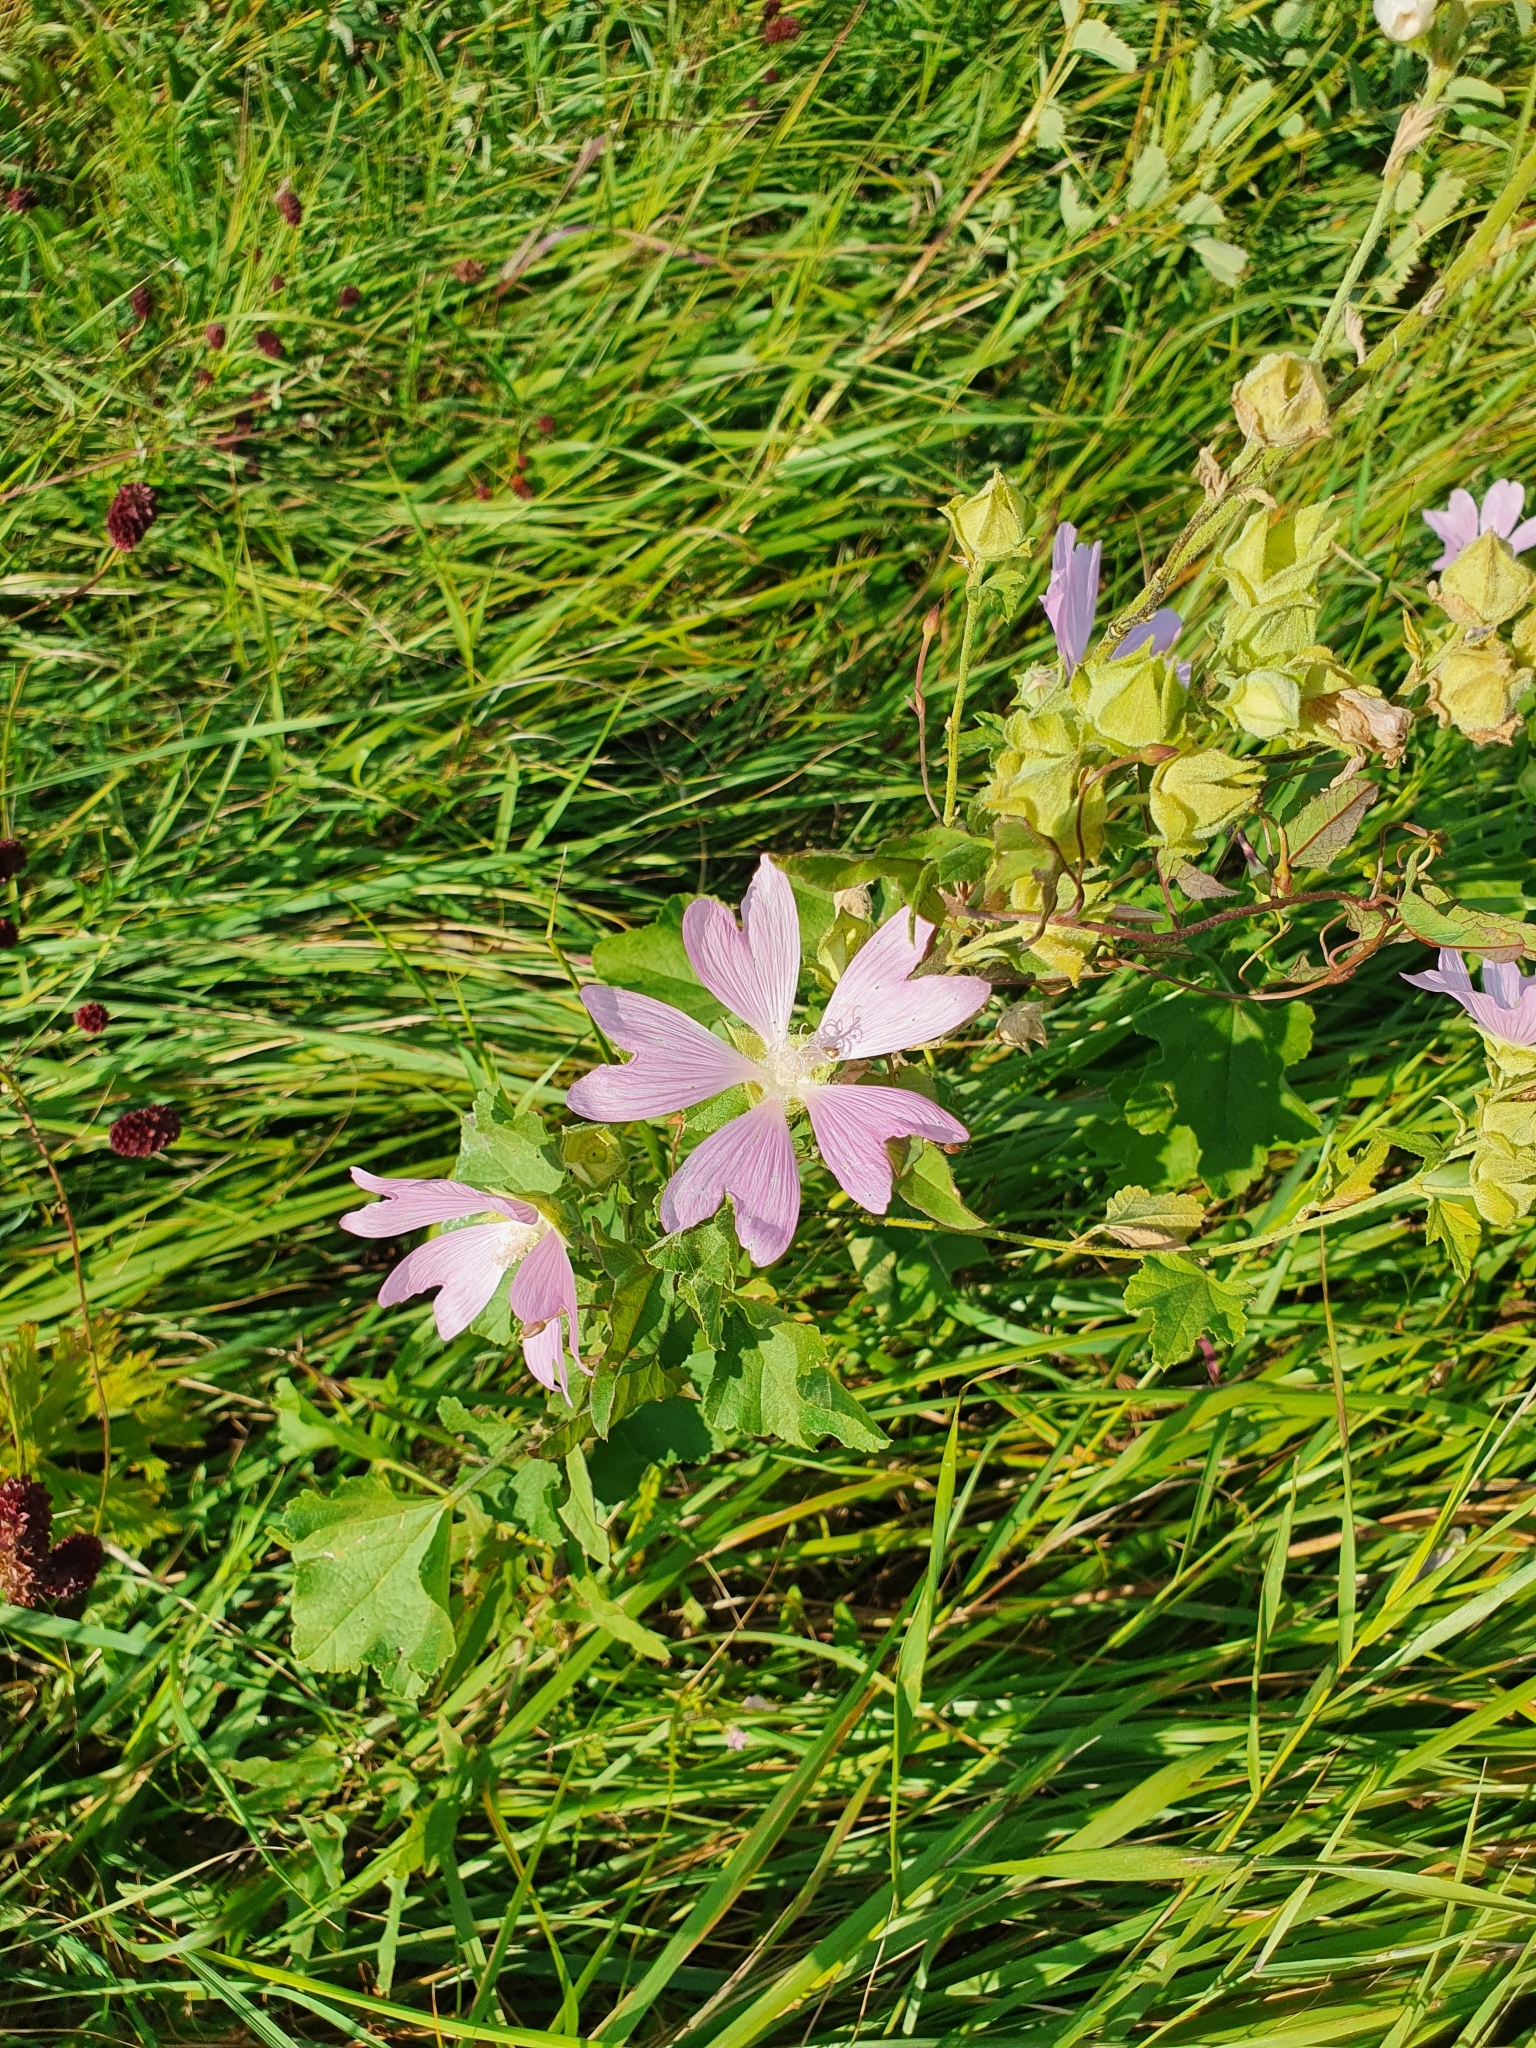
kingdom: Plantae
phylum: Tracheophyta
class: Magnoliopsida
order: Malvales
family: Malvaceae
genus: Malva
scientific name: Malva thuringiaca
